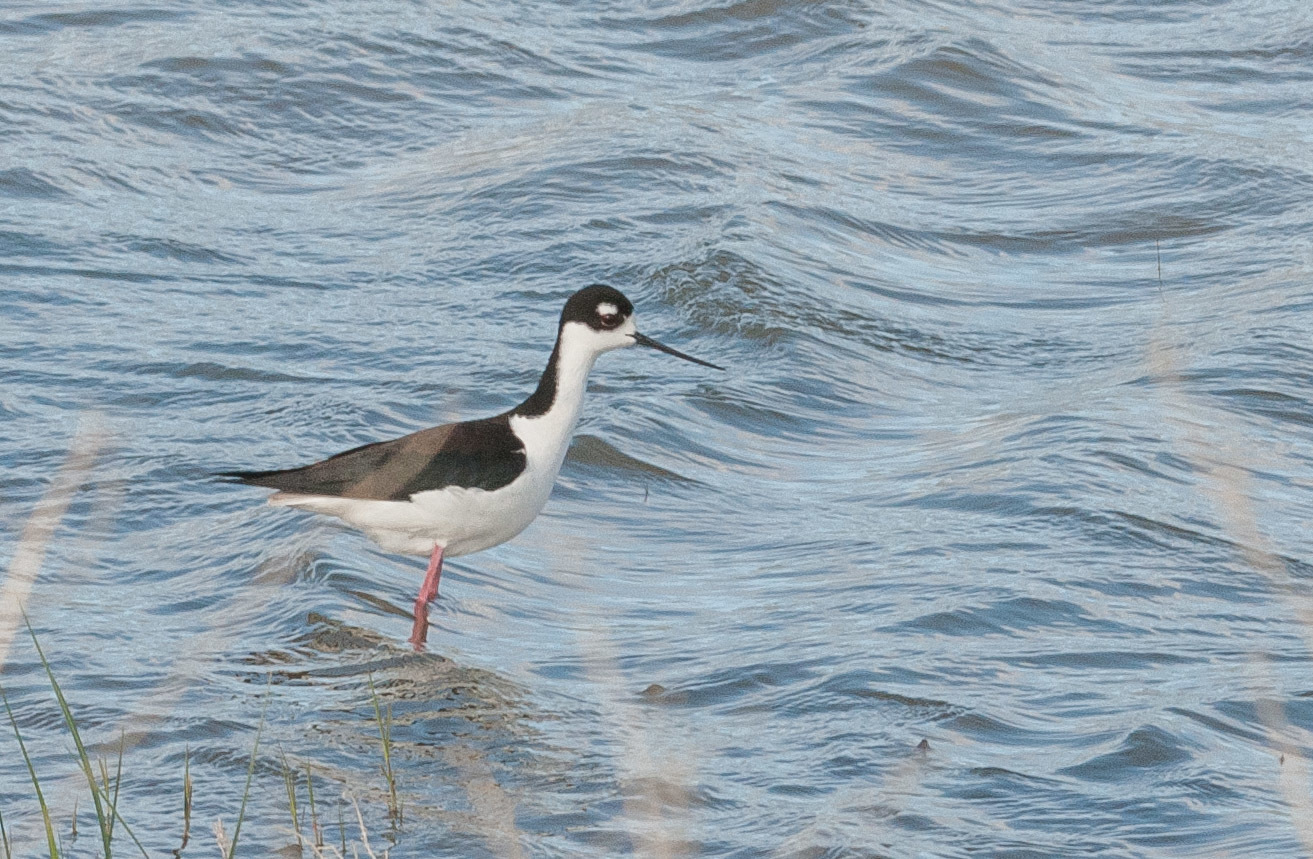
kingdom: Animalia
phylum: Chordata
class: Aves
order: Charadriiformes
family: Recurvirostridae
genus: Himantopus
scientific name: Himantopus mexicanus
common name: Black-necked stilt
